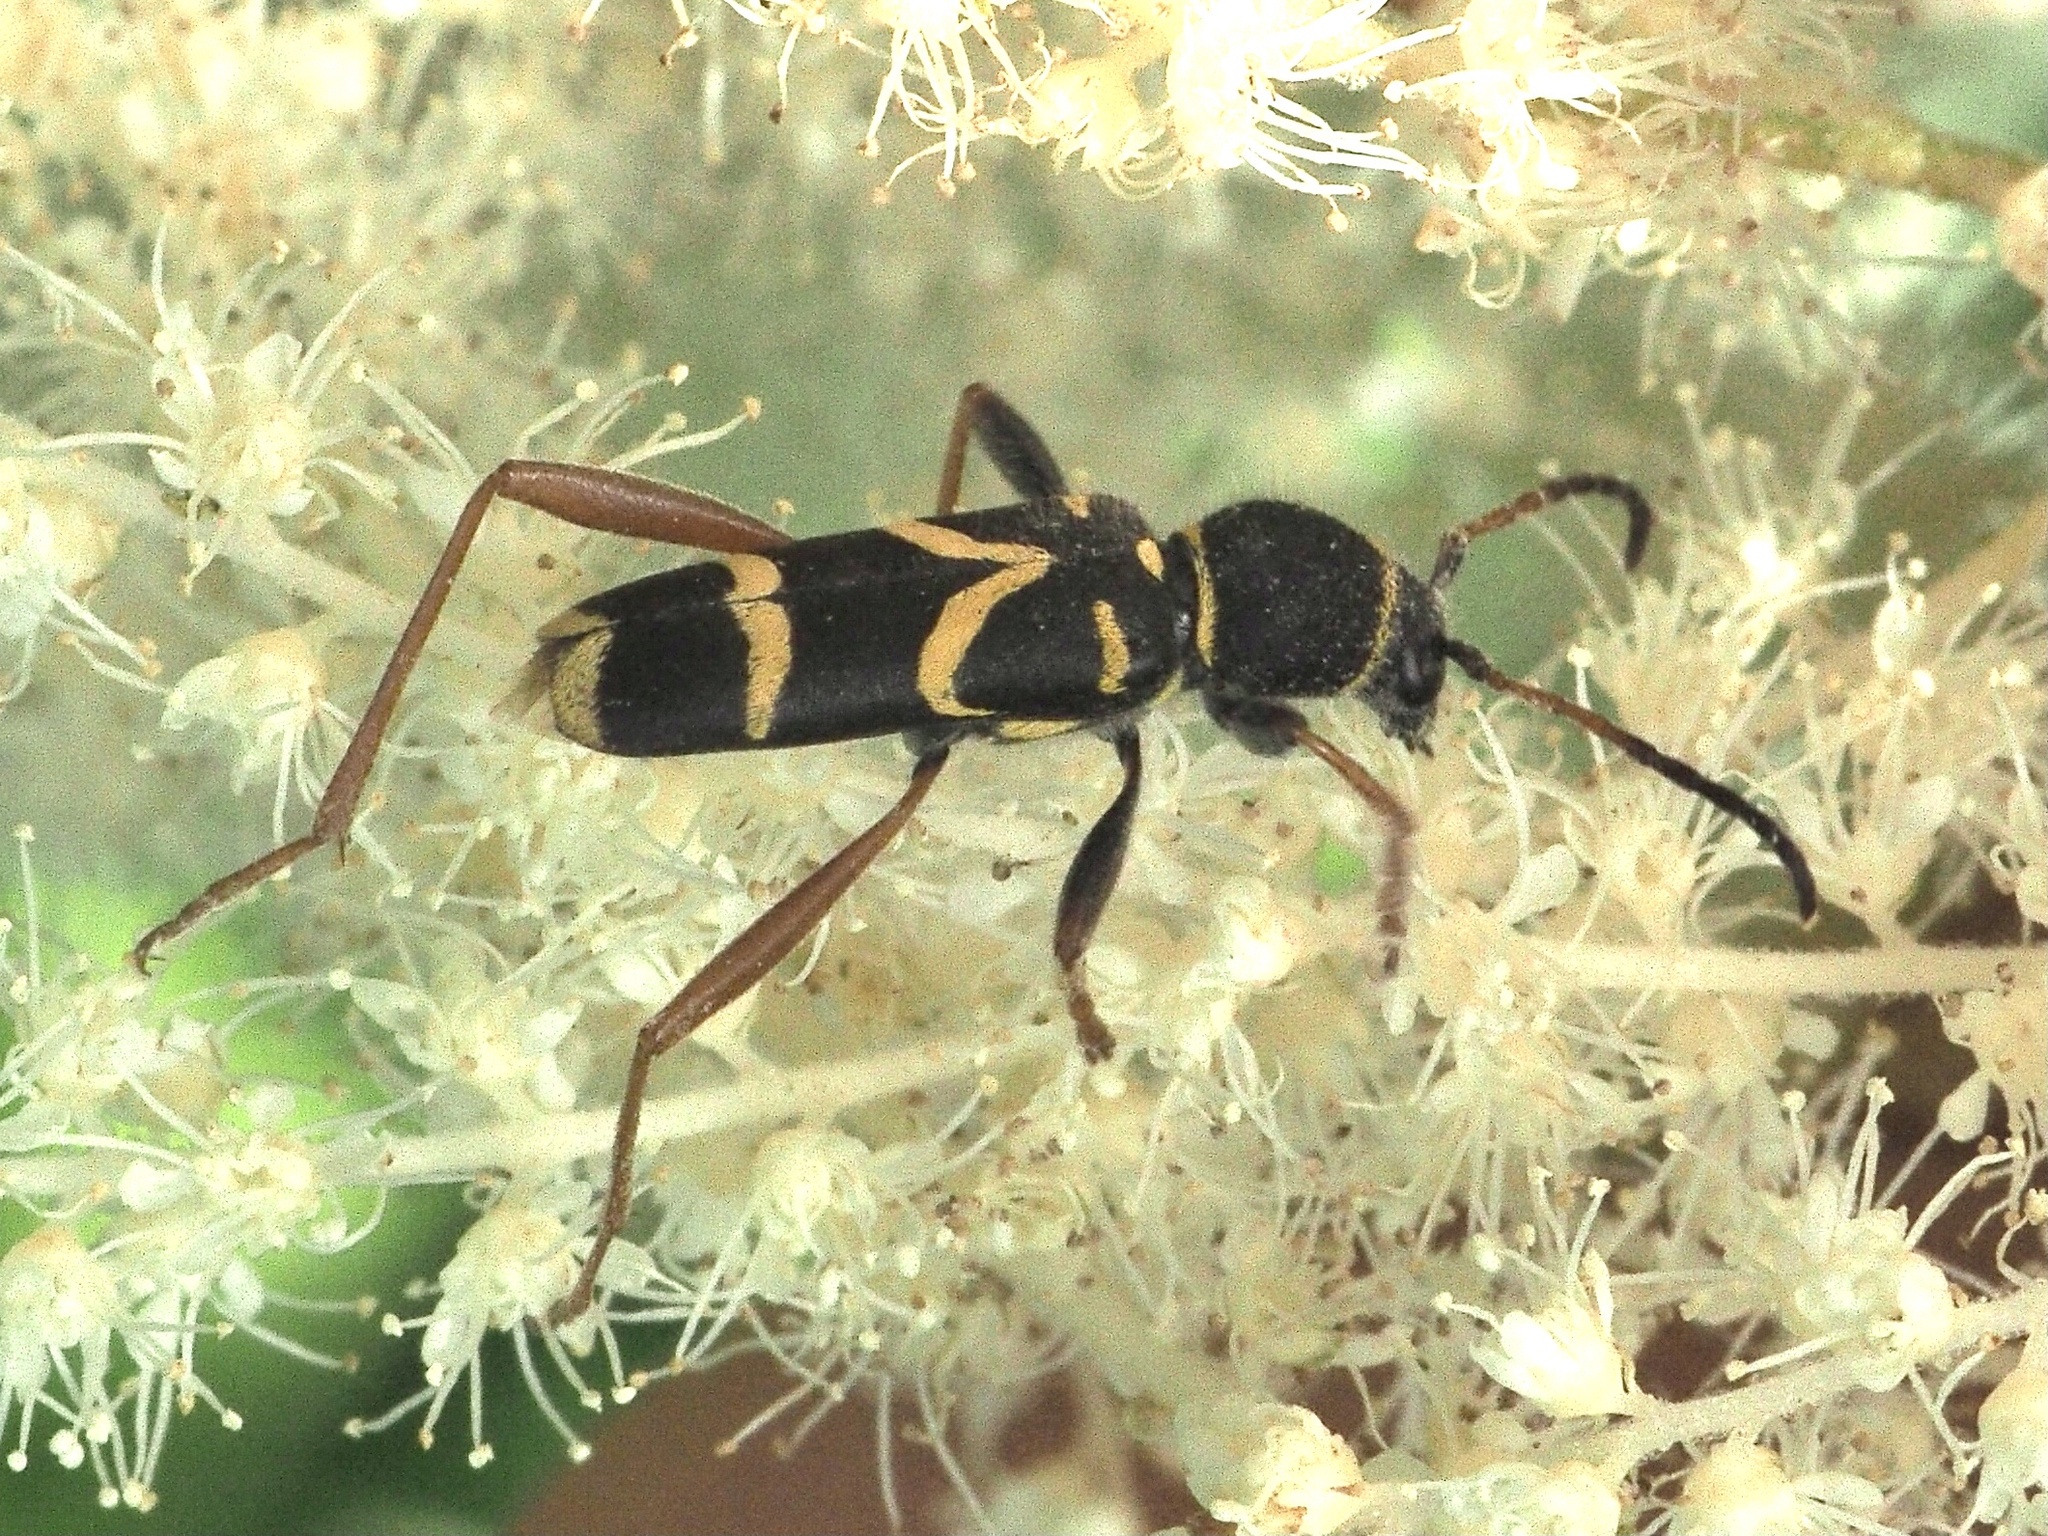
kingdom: Animalia
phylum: Arthropoda
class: Insecta
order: Coleoptera
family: Cerambycidae
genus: Clytus
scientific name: Clytus arietis
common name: Wasp beetle
